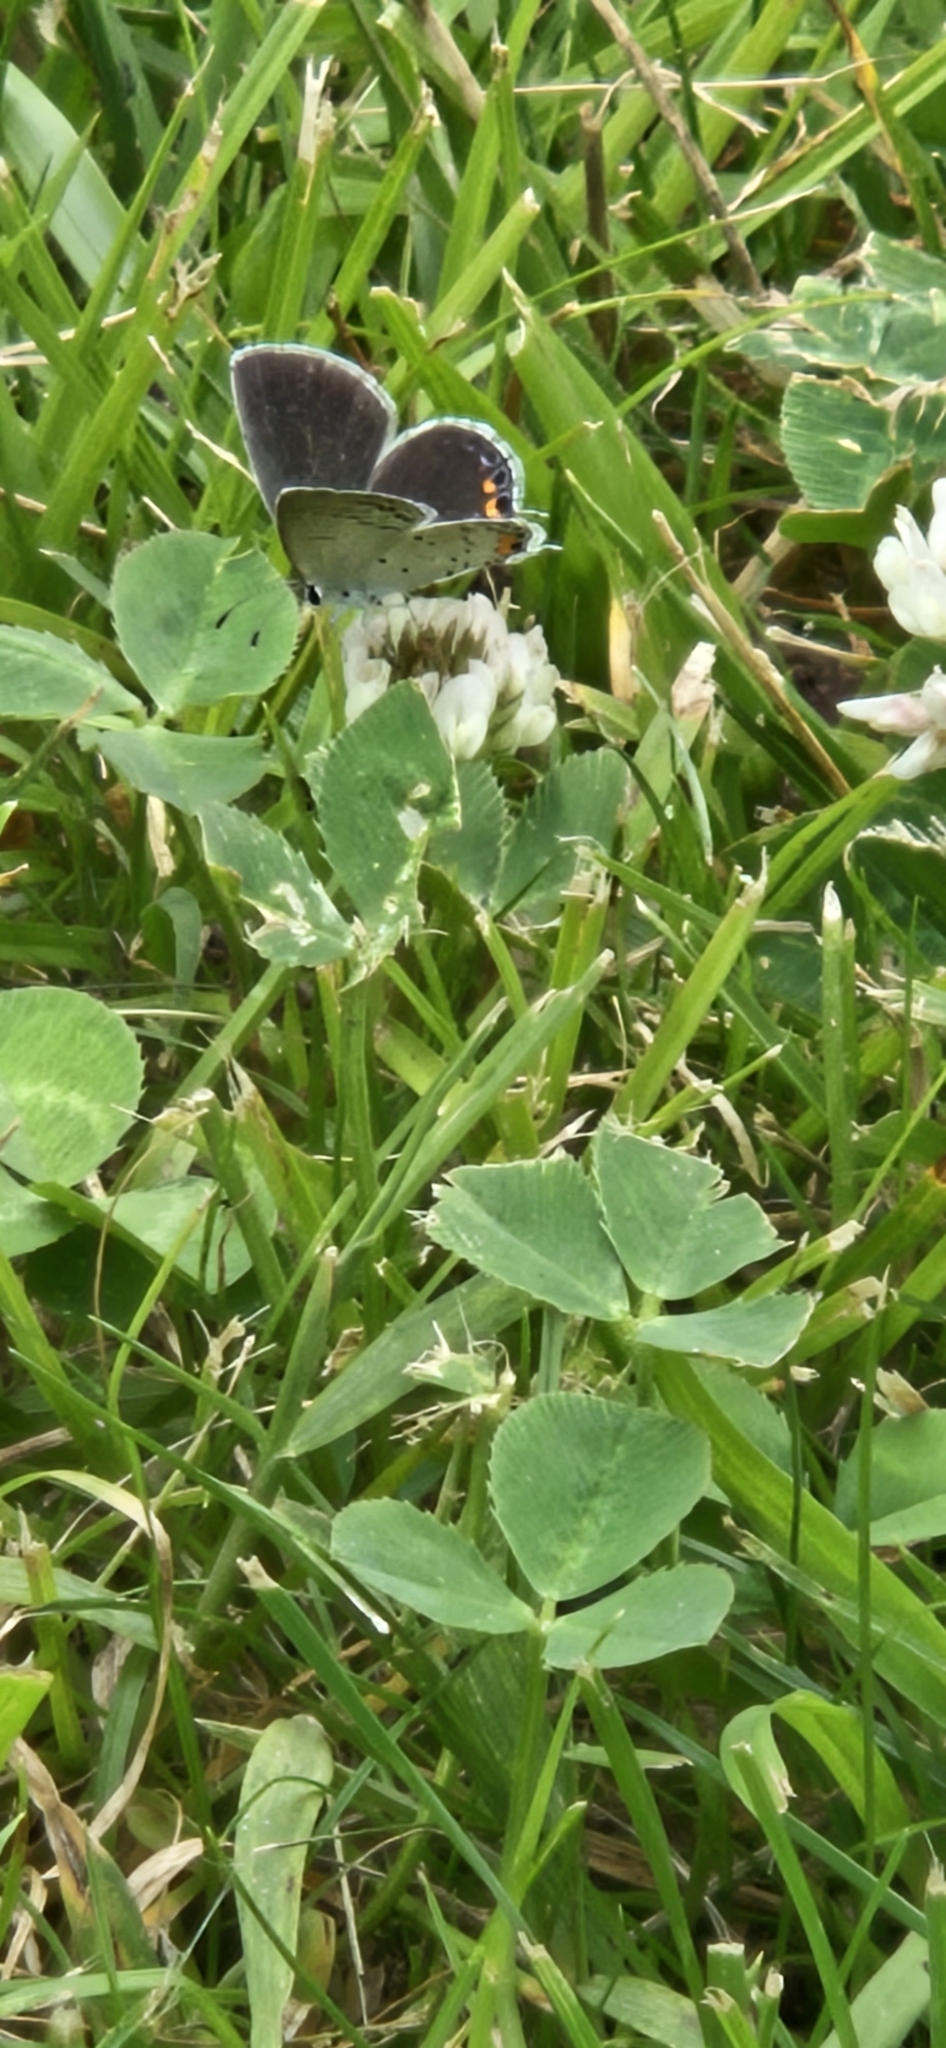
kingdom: Animalia
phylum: Arthropoda
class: Insecta
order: Lepidoptera
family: Lycaenidae
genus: Elkalyce
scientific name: Elkalyce comyntas
